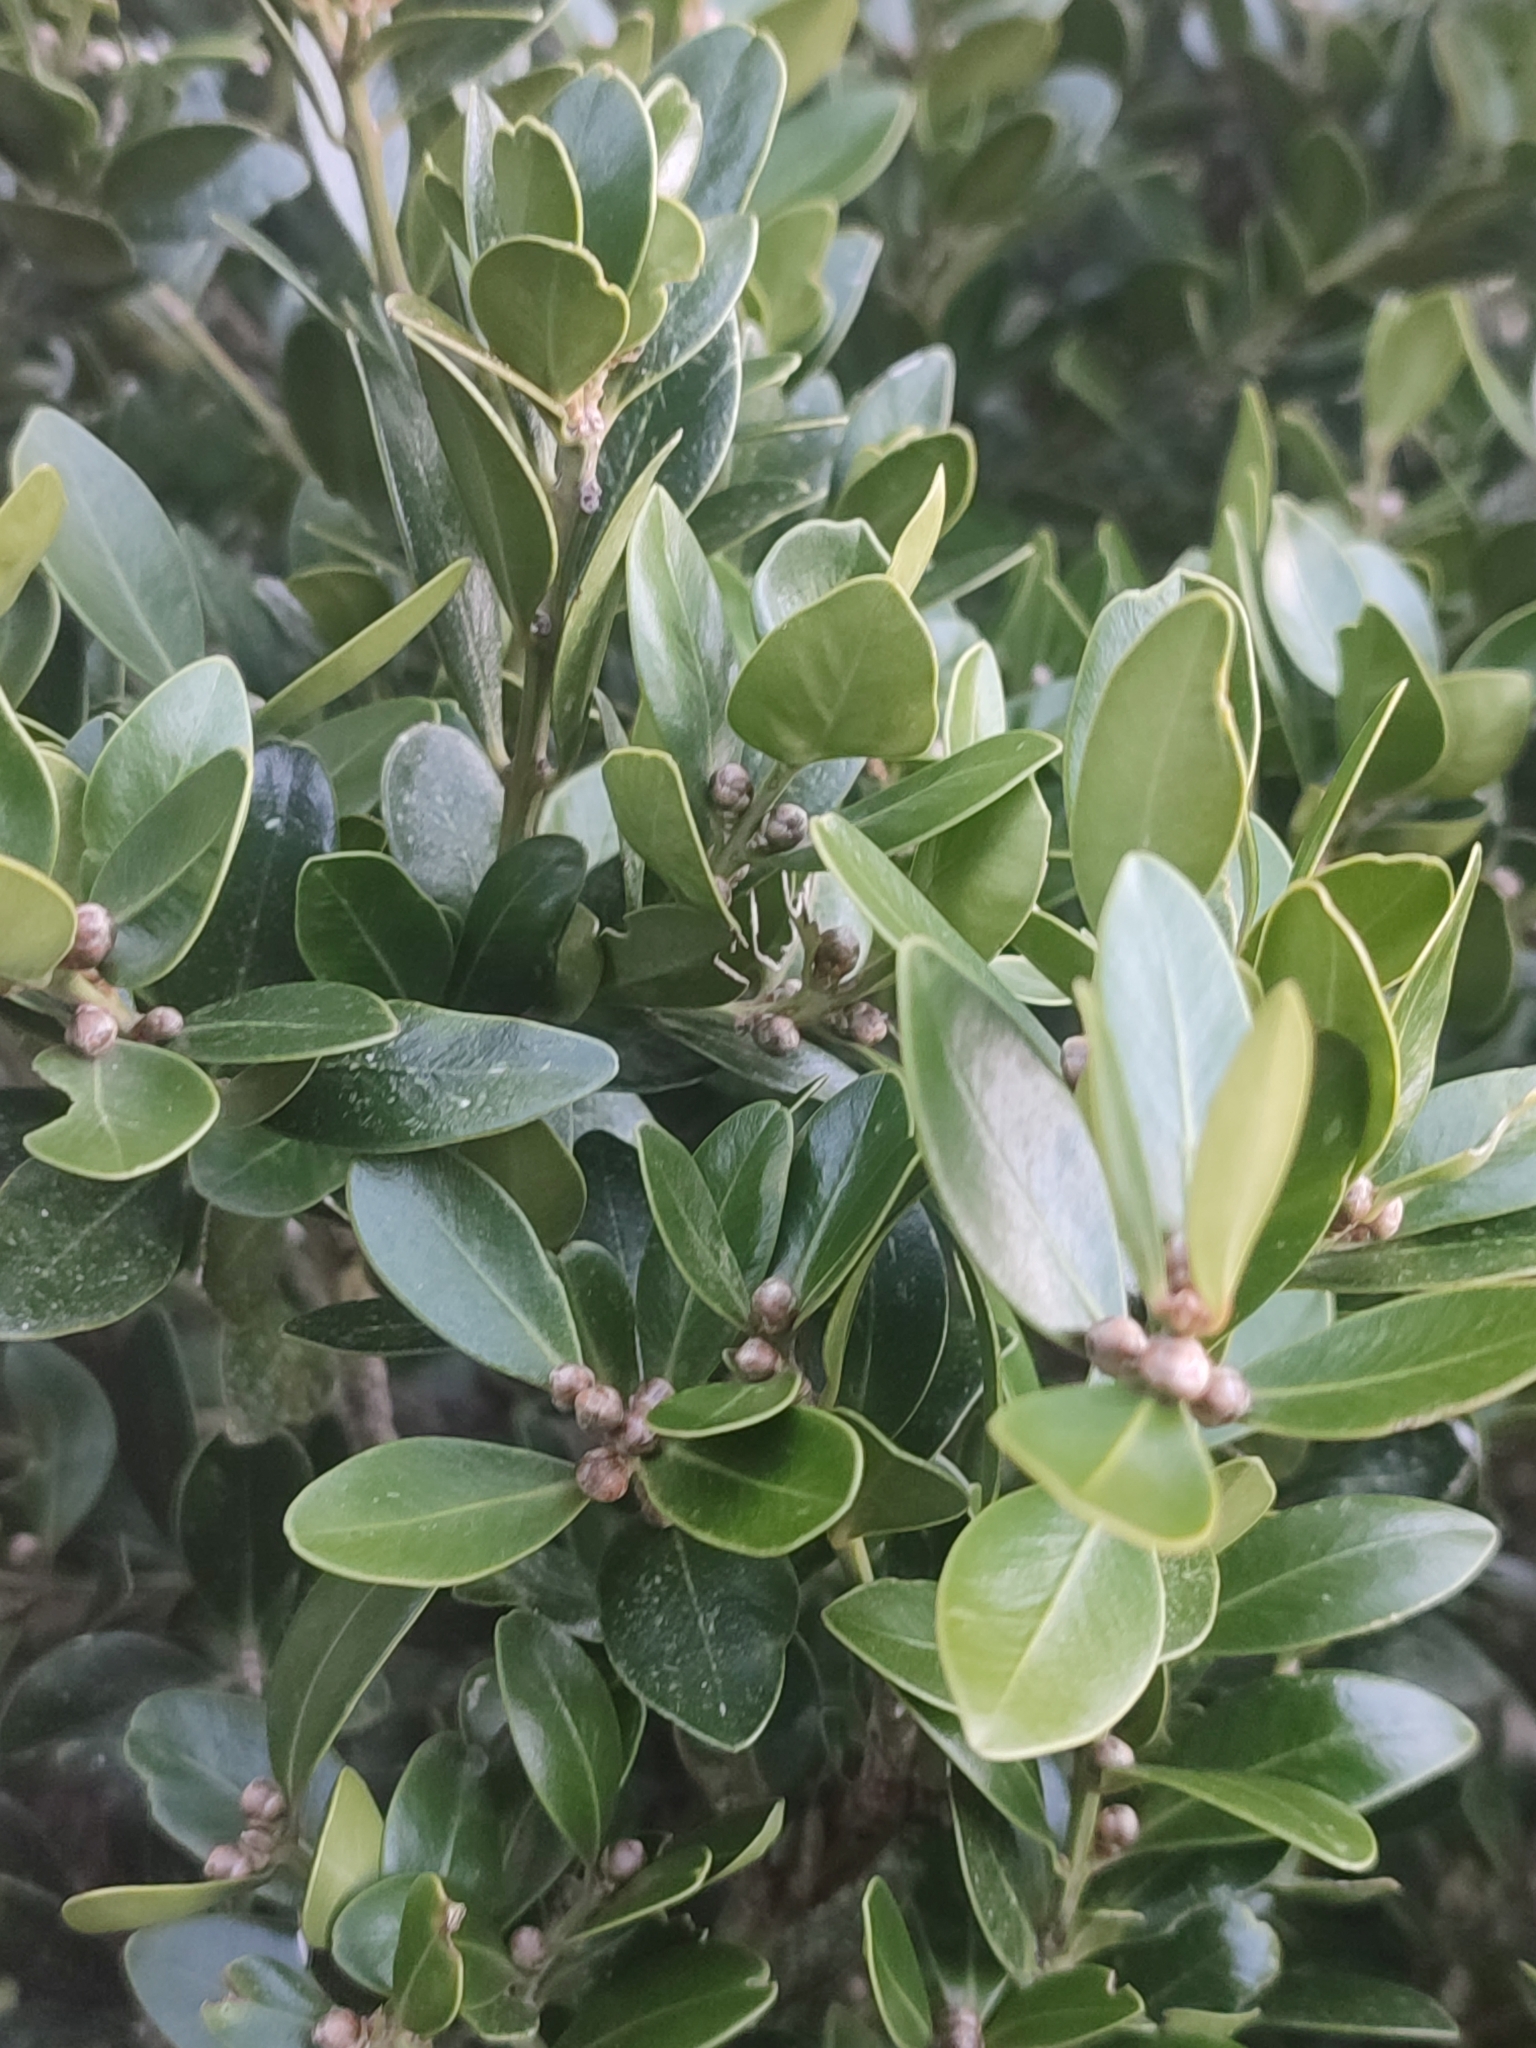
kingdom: Plantae
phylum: Tracheophyta
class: Magnoliopsida
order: Buxales
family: Buxaceae
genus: Buxus
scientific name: Buxus balearica
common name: Balearic box
